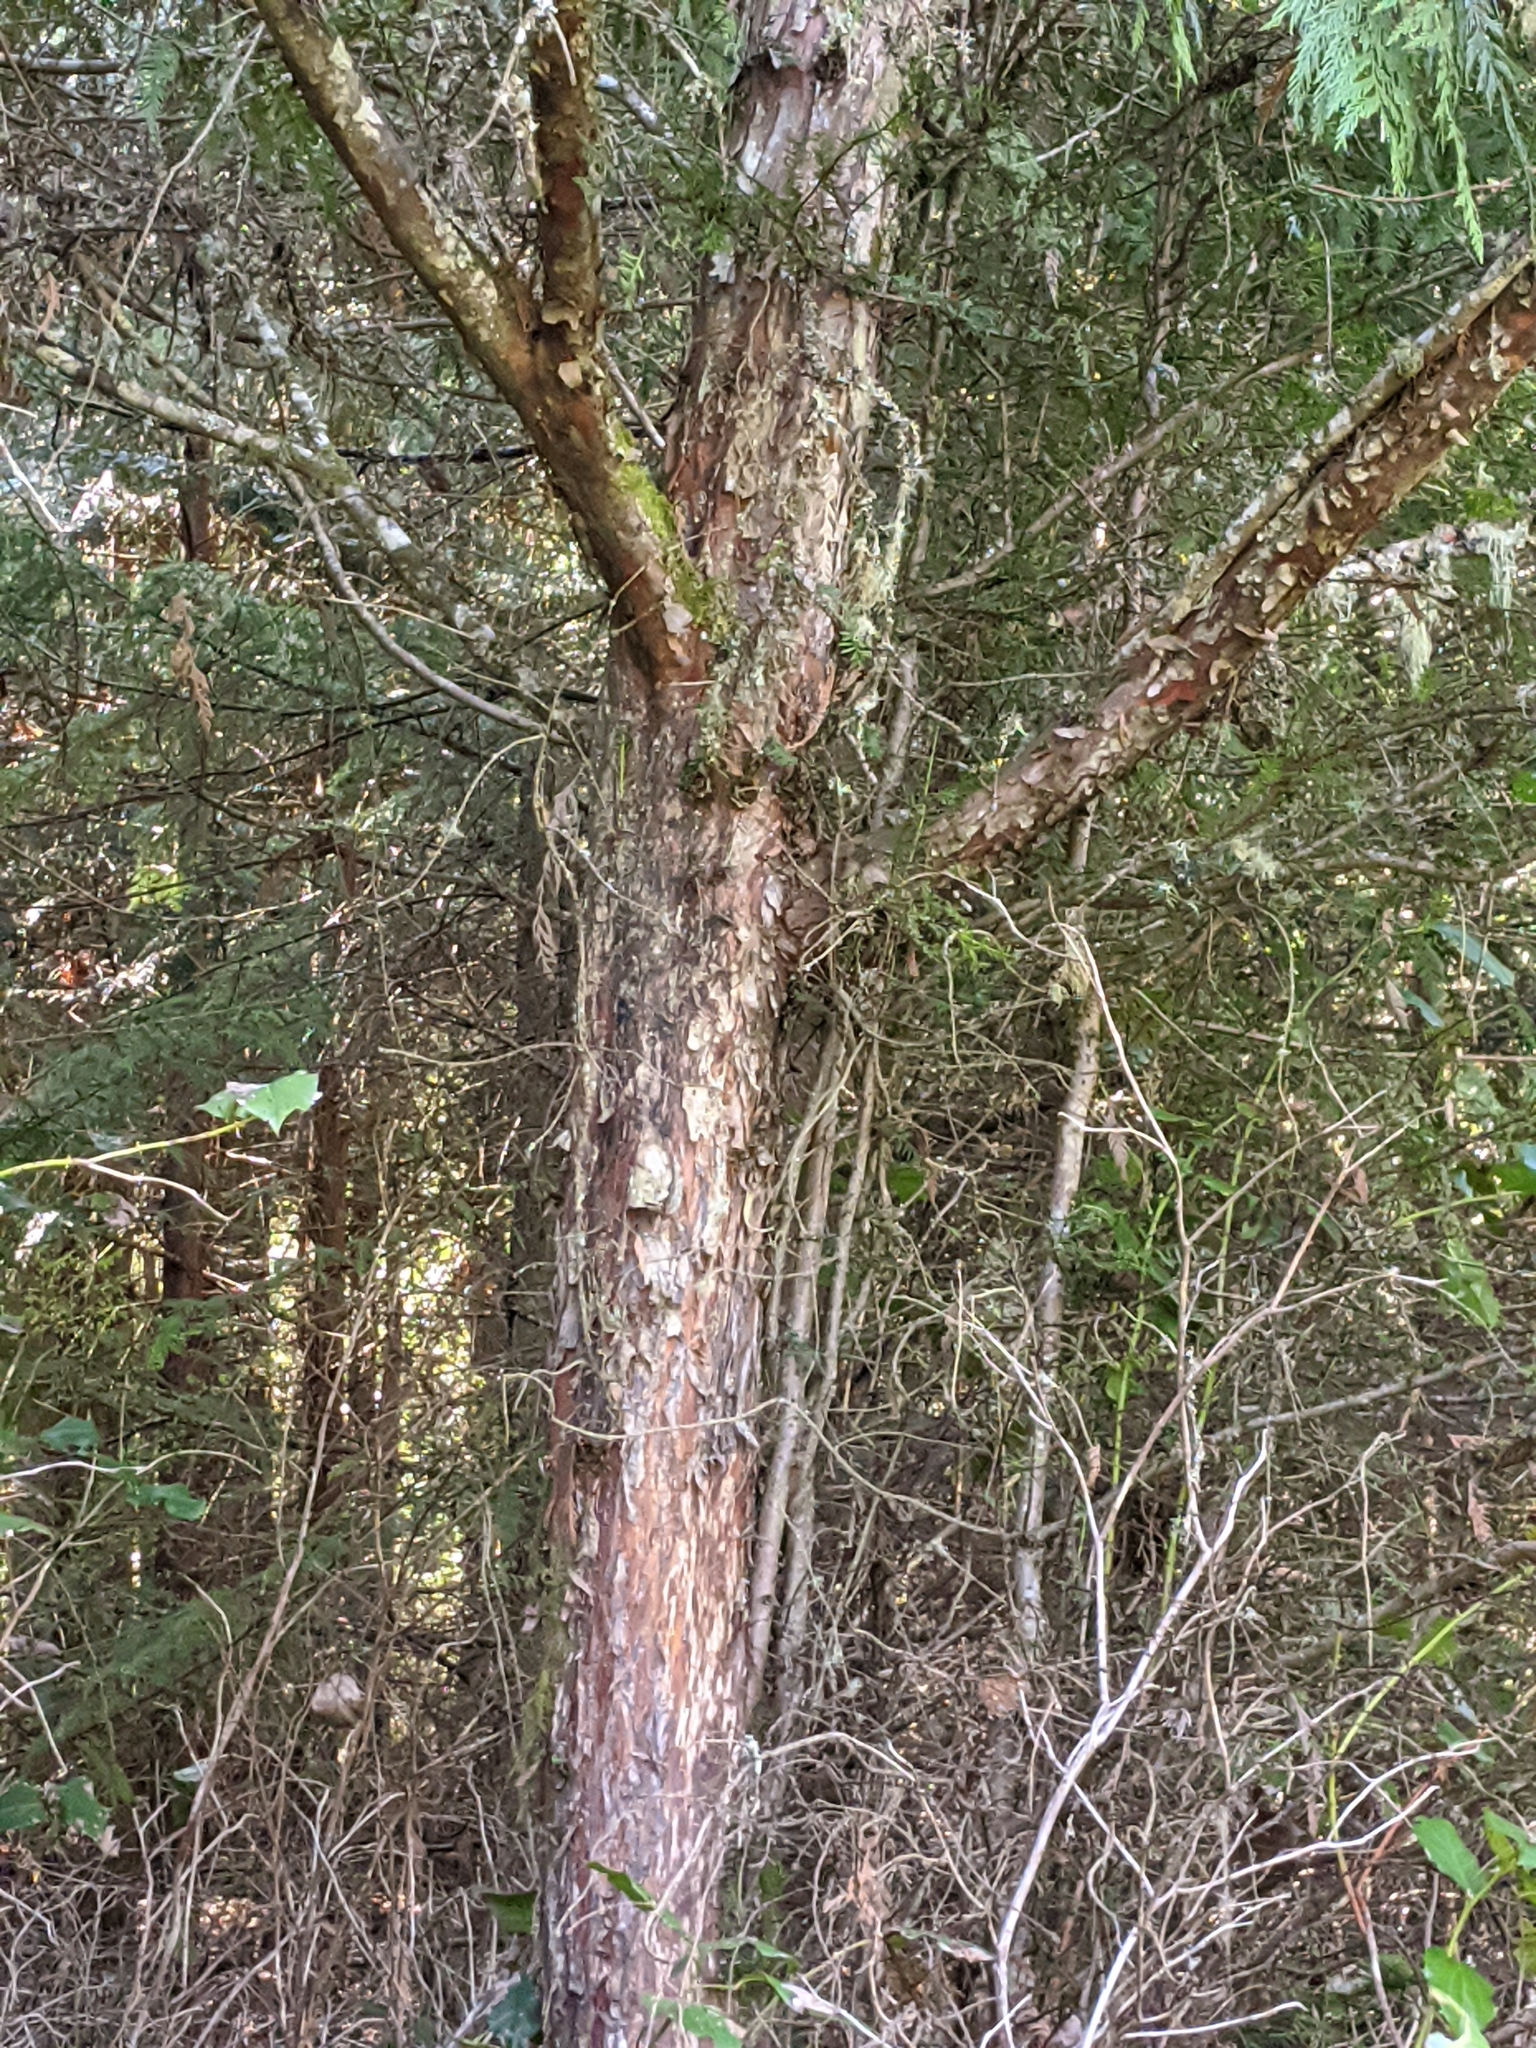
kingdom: Plantae
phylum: Tracheophyta
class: Pinopsida
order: Pinales
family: Taxaceae
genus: Taxus
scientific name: Taxus brevifolia
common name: Pacific yew
